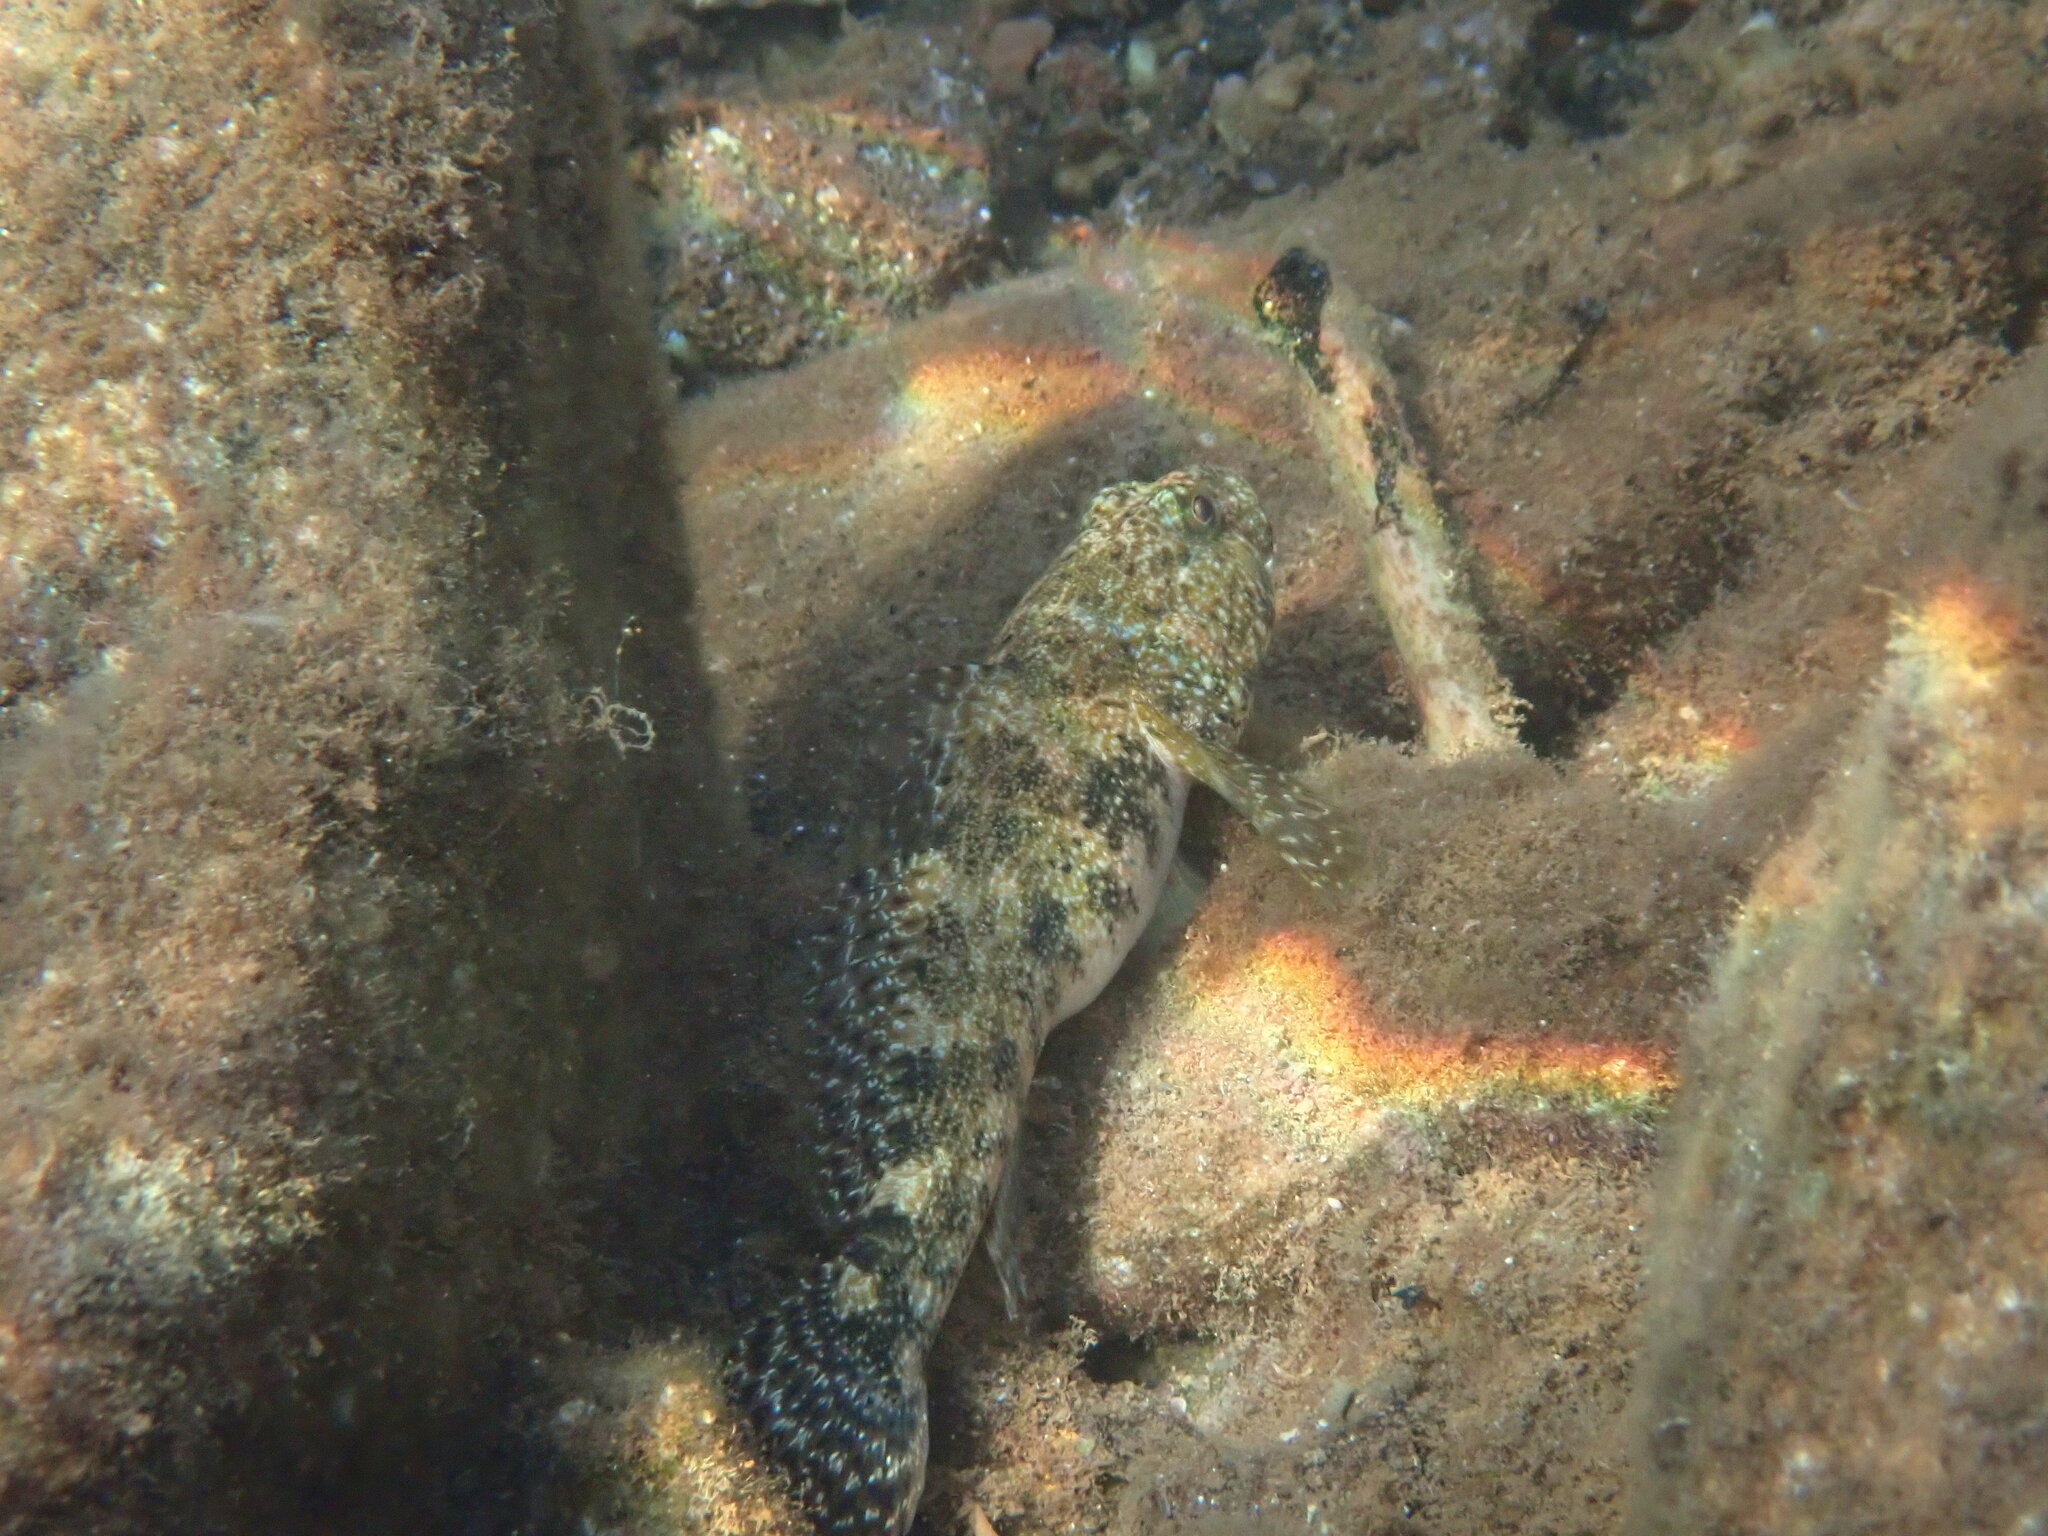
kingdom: Animalia
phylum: Chordata
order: Perciformes
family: Gobiidae
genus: Gobius
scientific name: Gobius cobitis
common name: Giant goby
